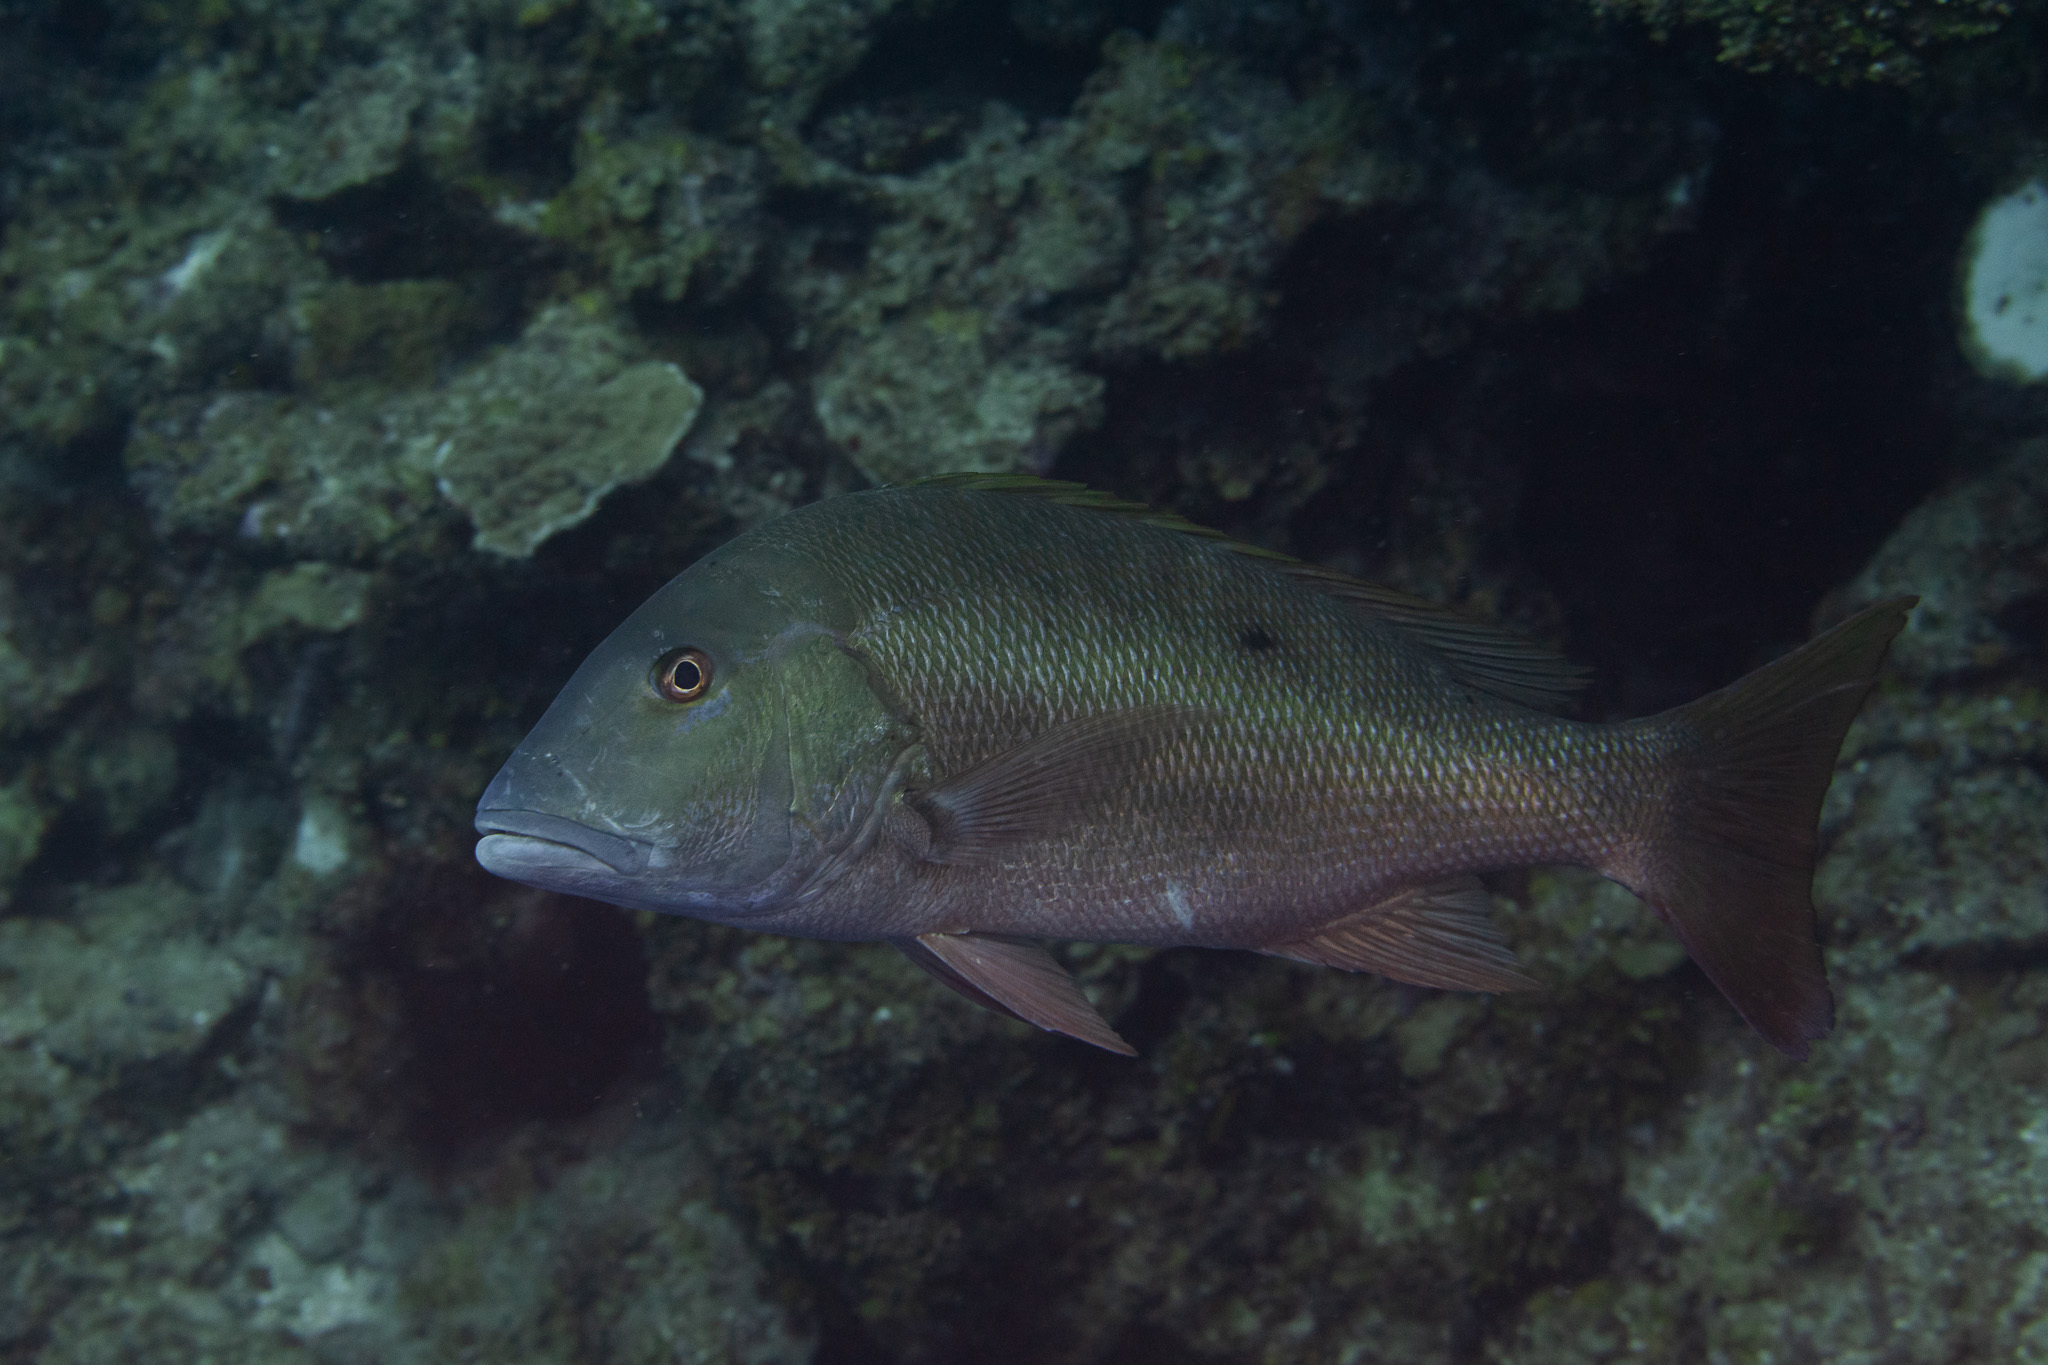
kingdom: Animalia
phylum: Chordata
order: Perciformes
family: Lutjanidae
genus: Lutjanus
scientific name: Lutjanus analis
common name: Mutton snapper
